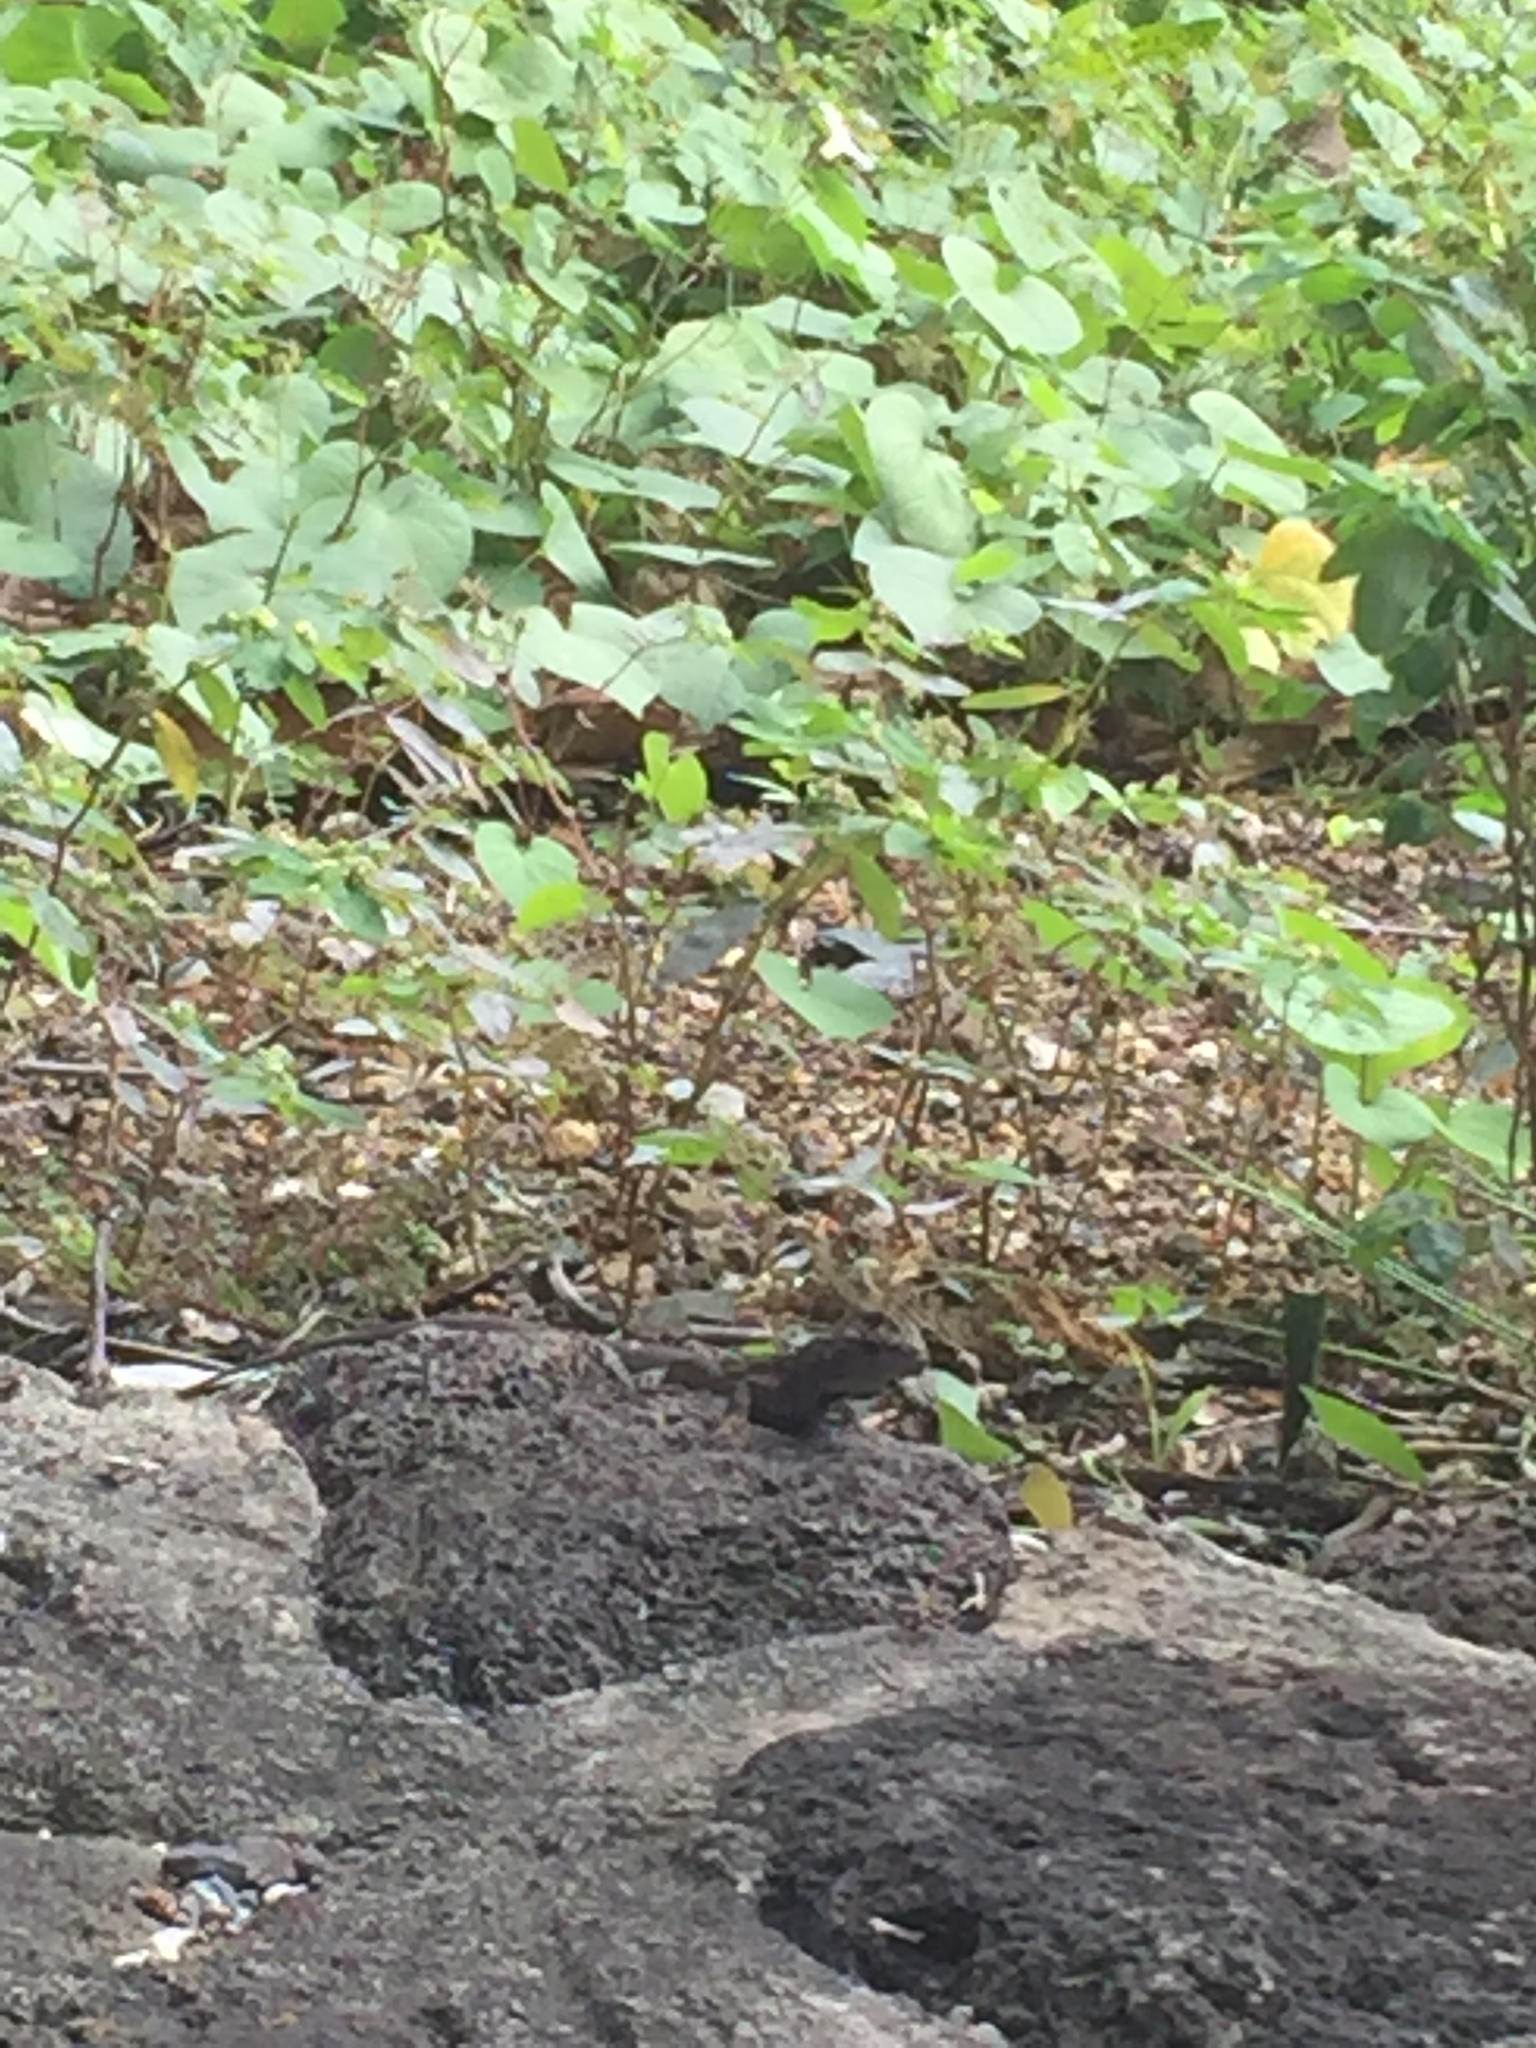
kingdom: Animalia
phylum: Chordata
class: Squamata
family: Dactyloidae
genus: Anolis
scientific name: Anolis sagrei
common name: Brown anole
